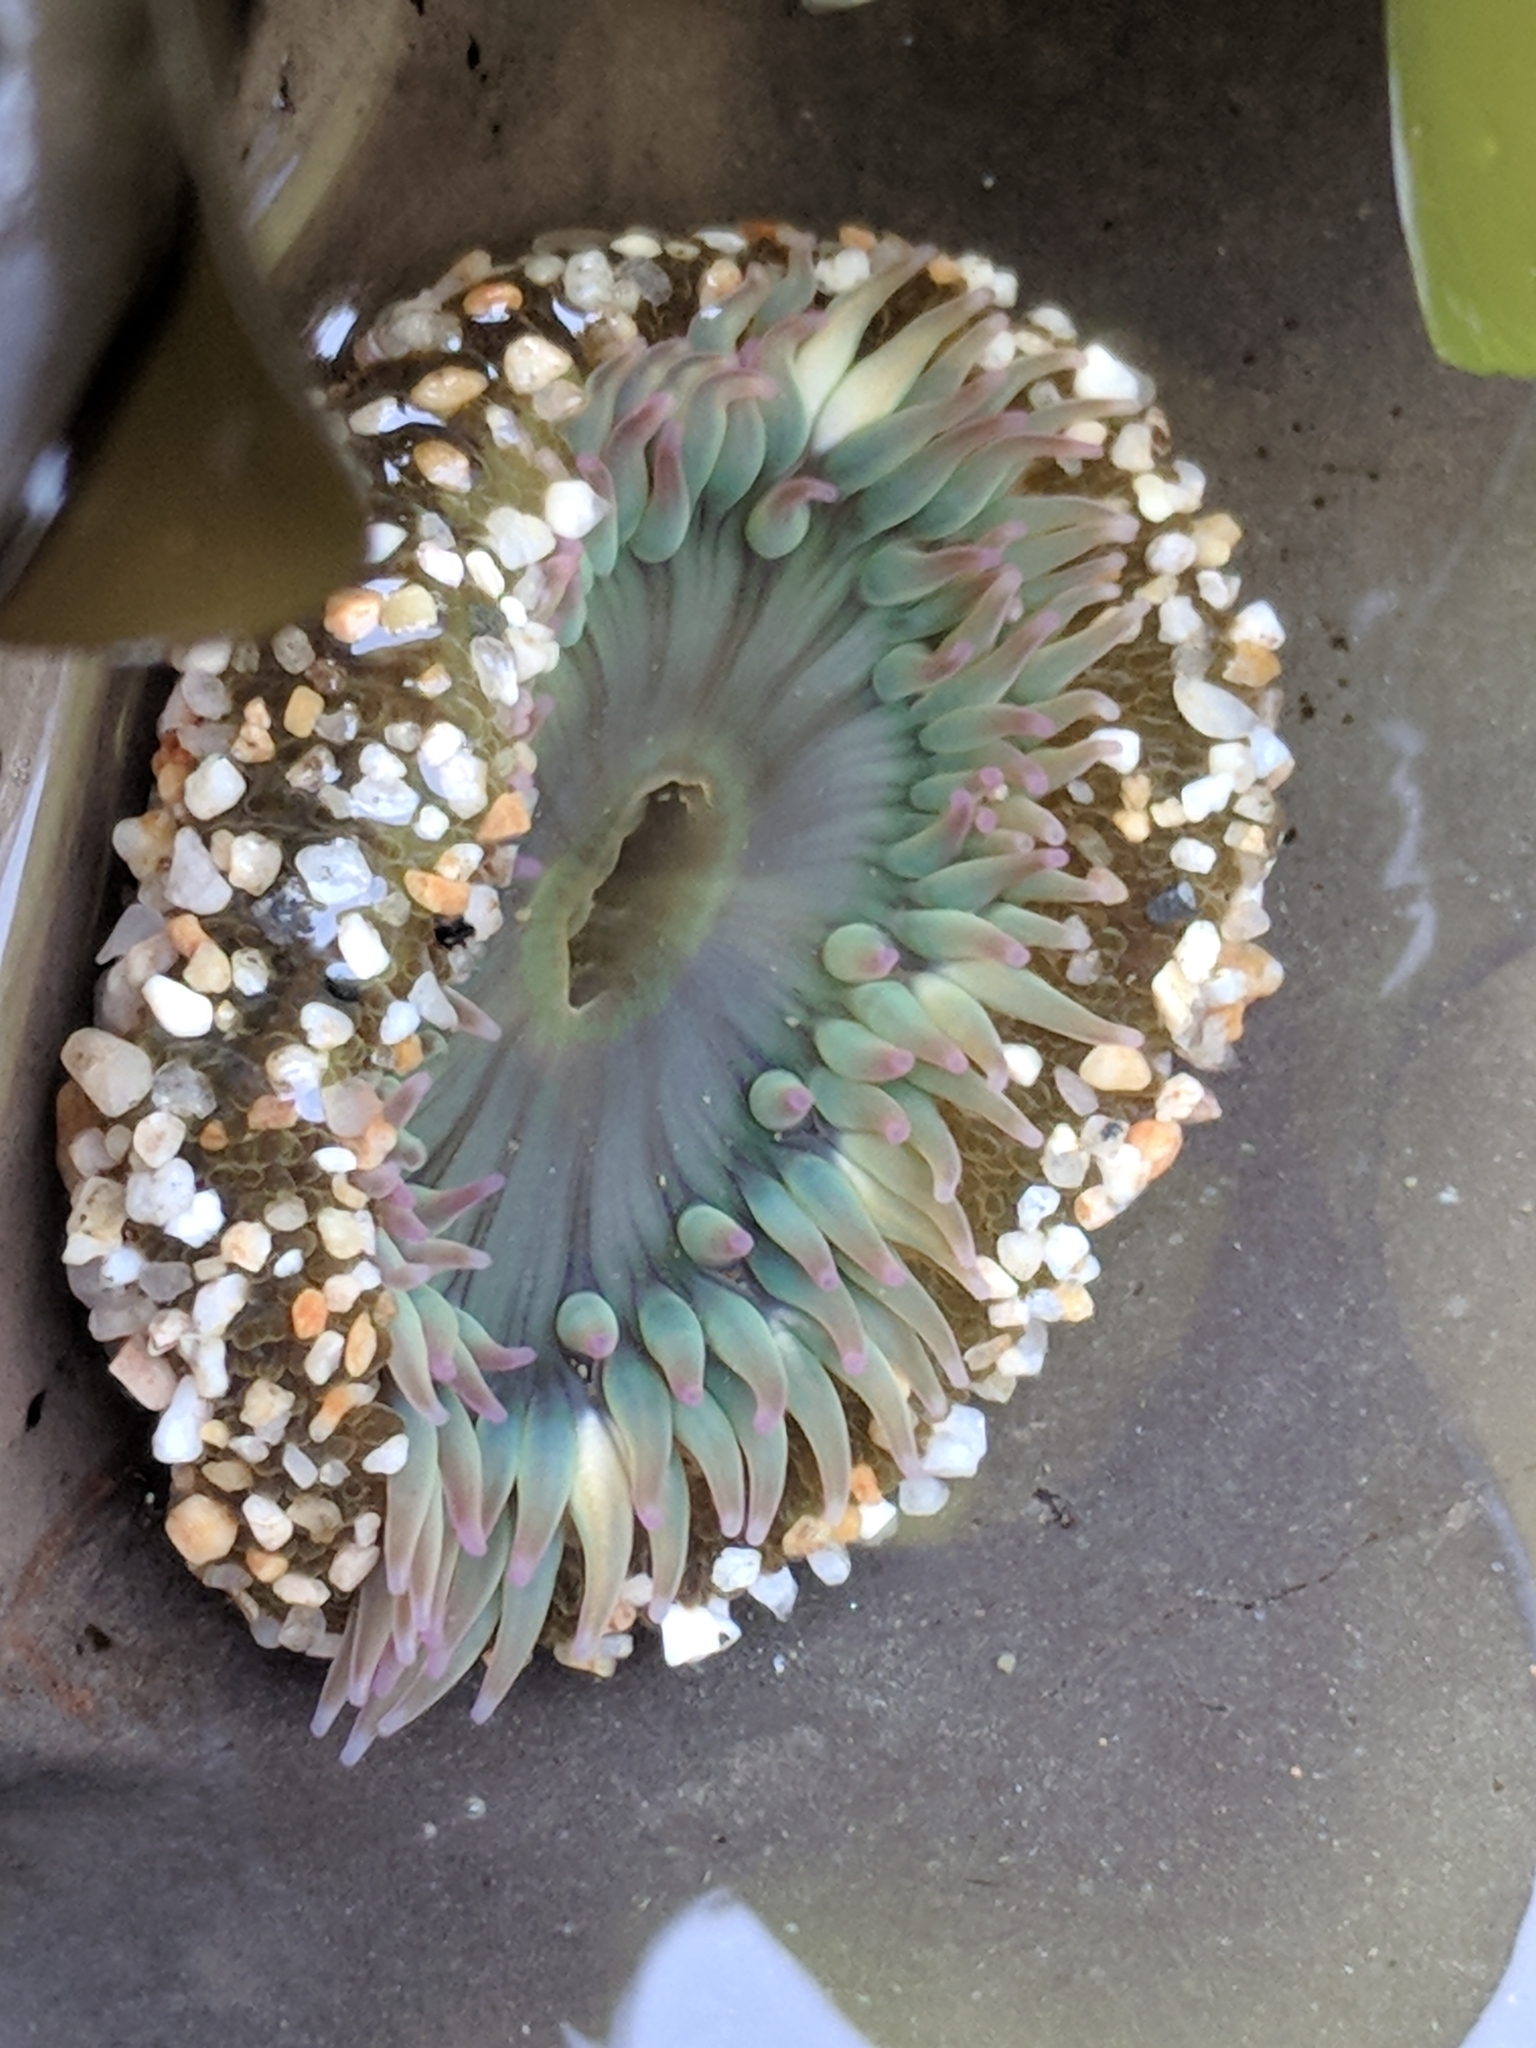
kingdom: Animalia
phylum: Cnidaria
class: Anthozoa
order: Actiniaria
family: Actiniidae
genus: Anthopleura
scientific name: Anthopleura sola
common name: Sun anemone
